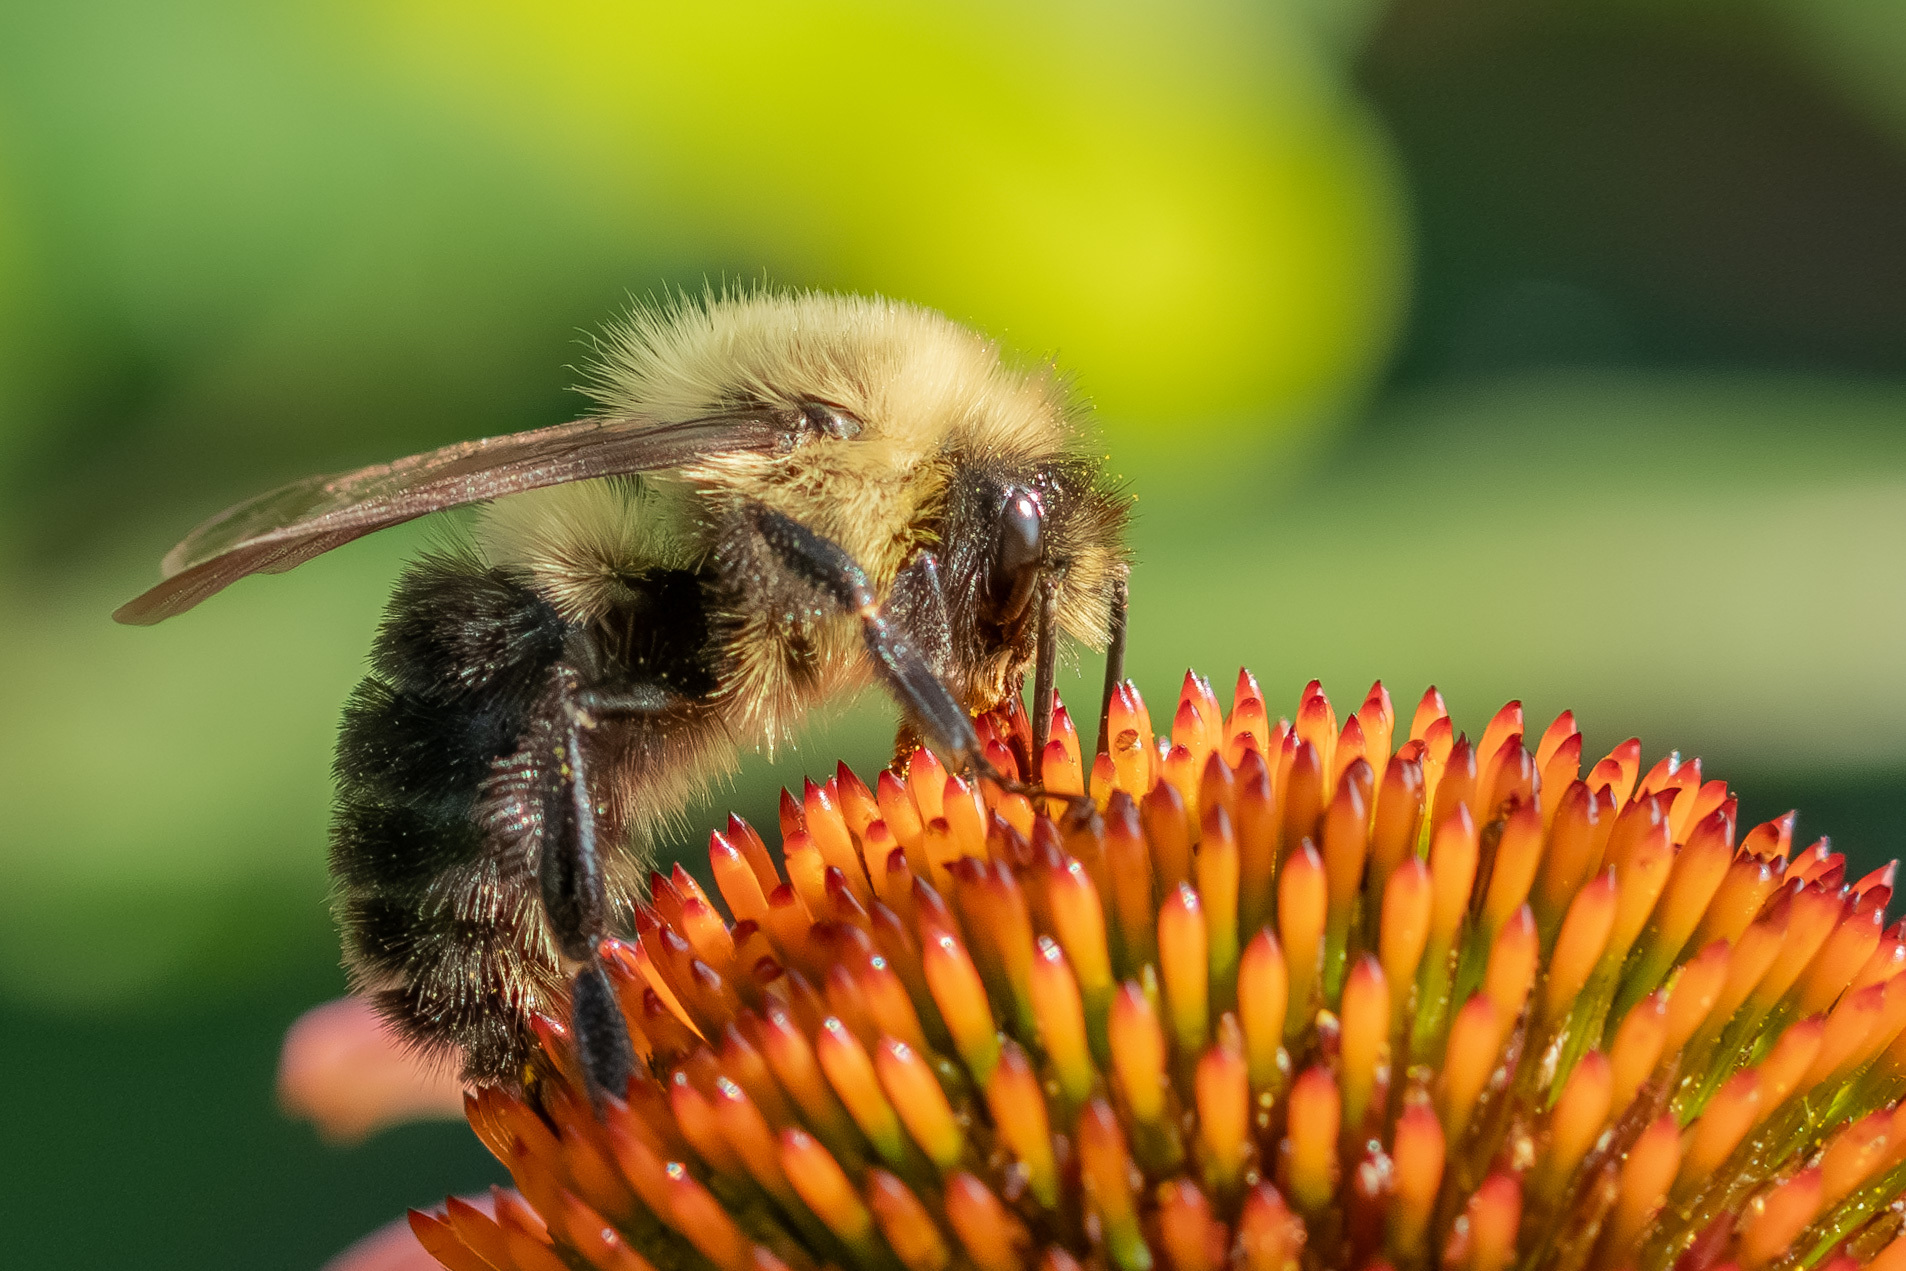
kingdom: Animalia
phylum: Arthropoda
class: Insecta
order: Hymenoptera
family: Apidae
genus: Bombus
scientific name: Bombus impatiens
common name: Common eastern bumble bee
